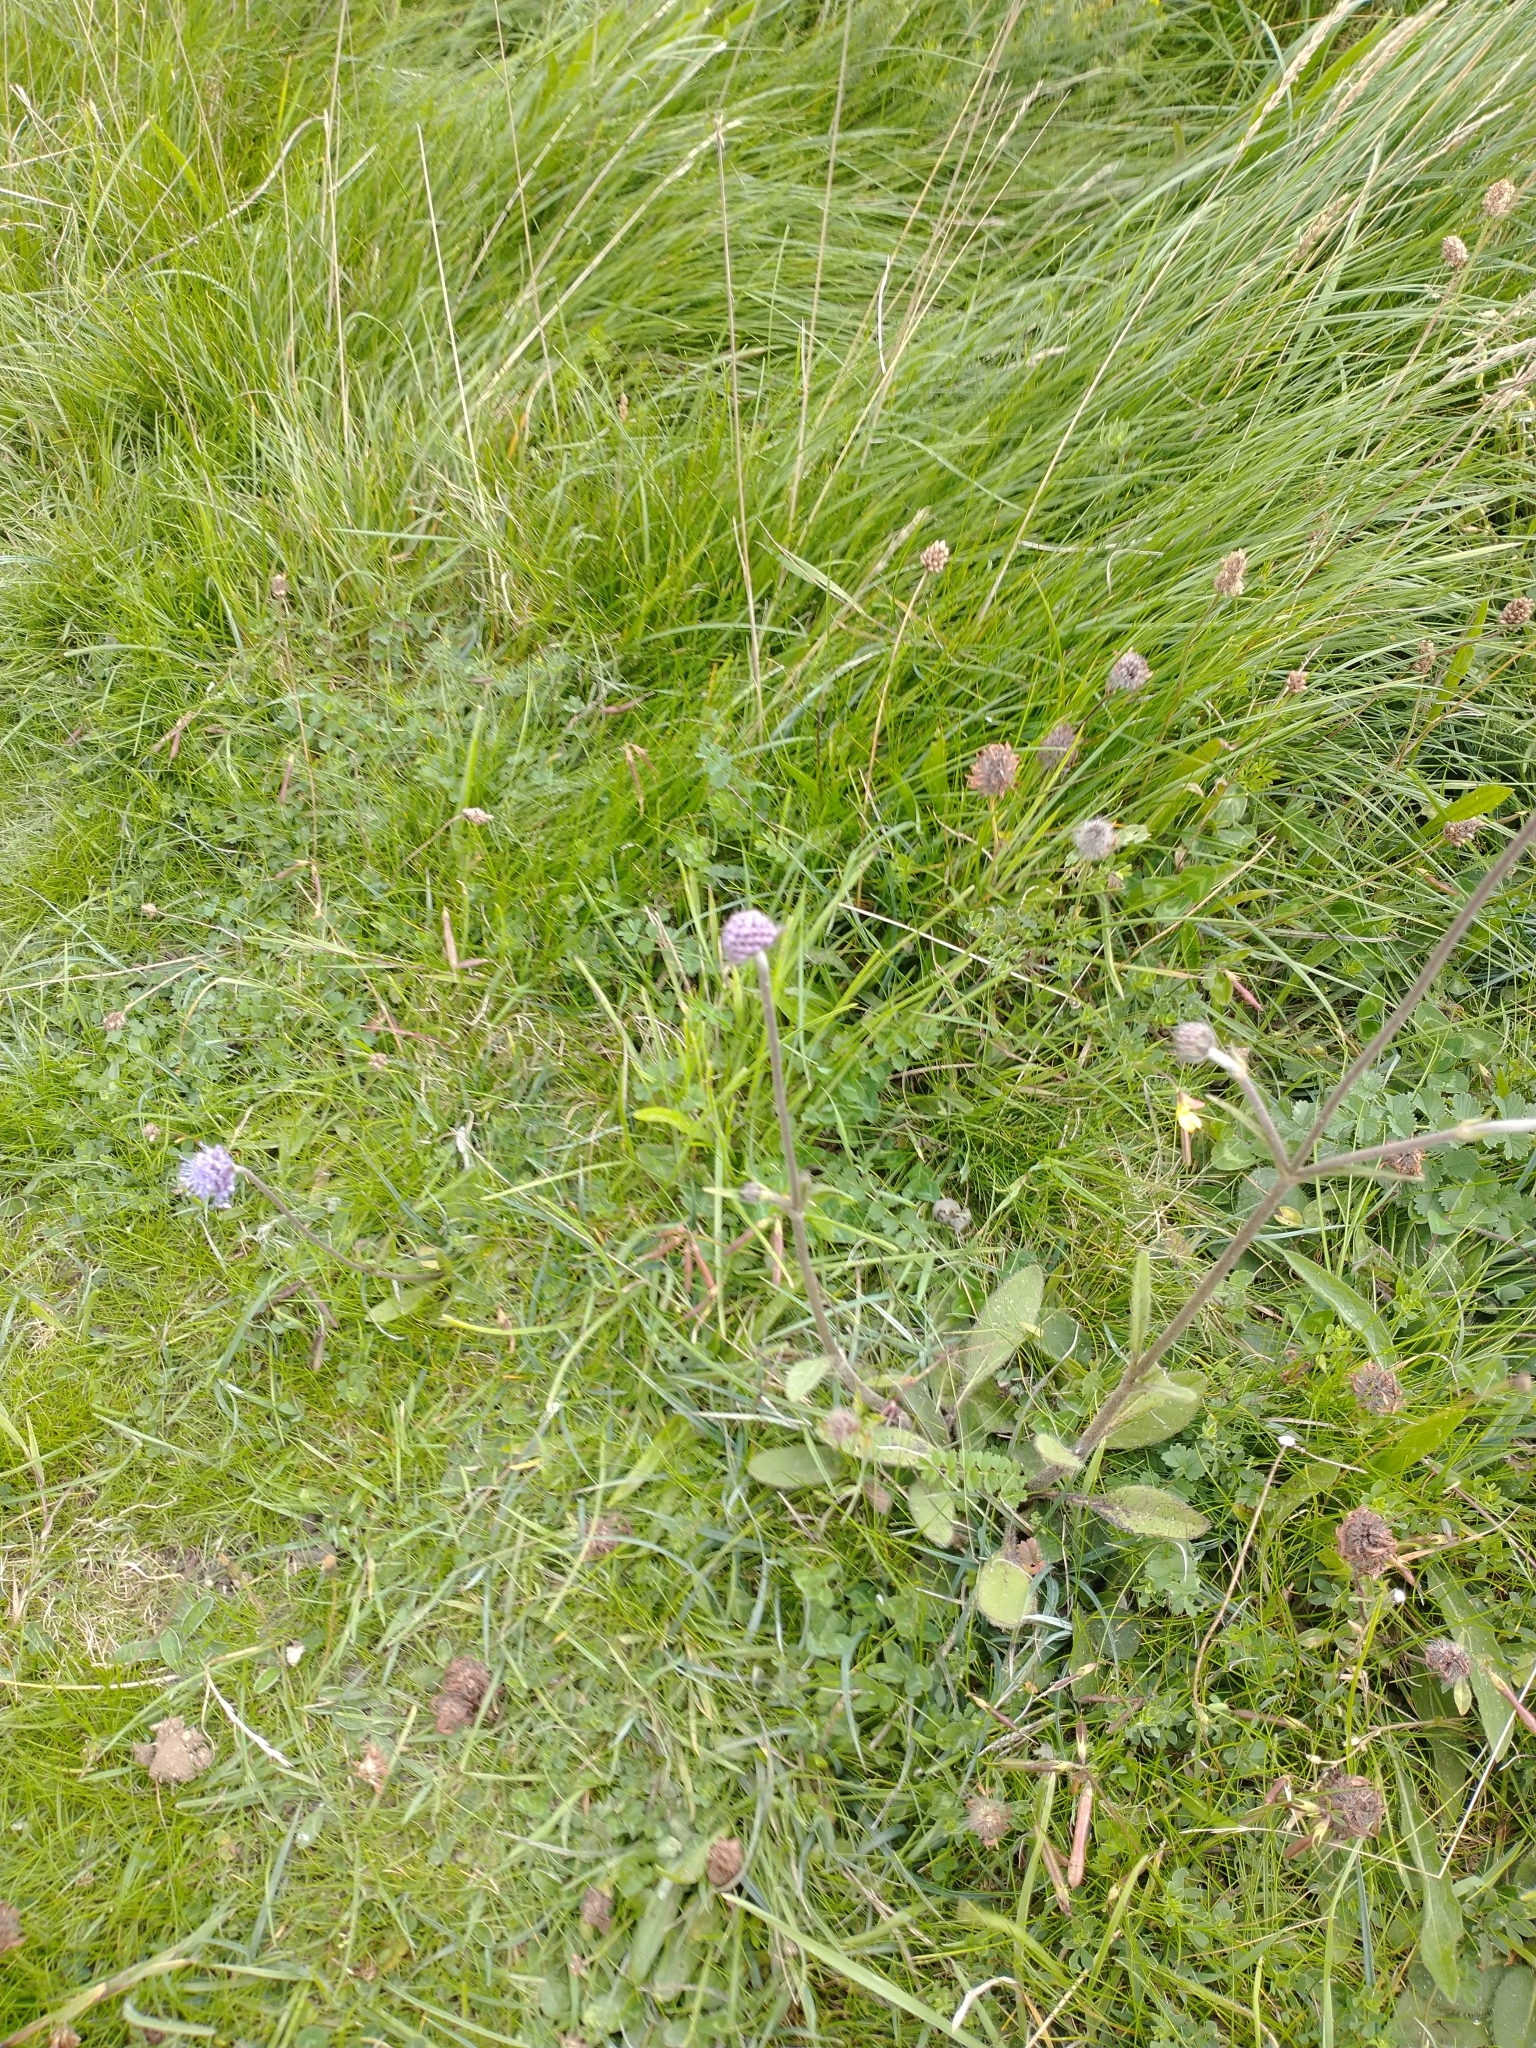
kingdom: Plantae
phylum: Tracheophyta
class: Magnoliopsida
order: Dipsacales
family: Caprifoliaceae
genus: Succisa
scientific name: Succisa pratensis
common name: Devil's-bit
